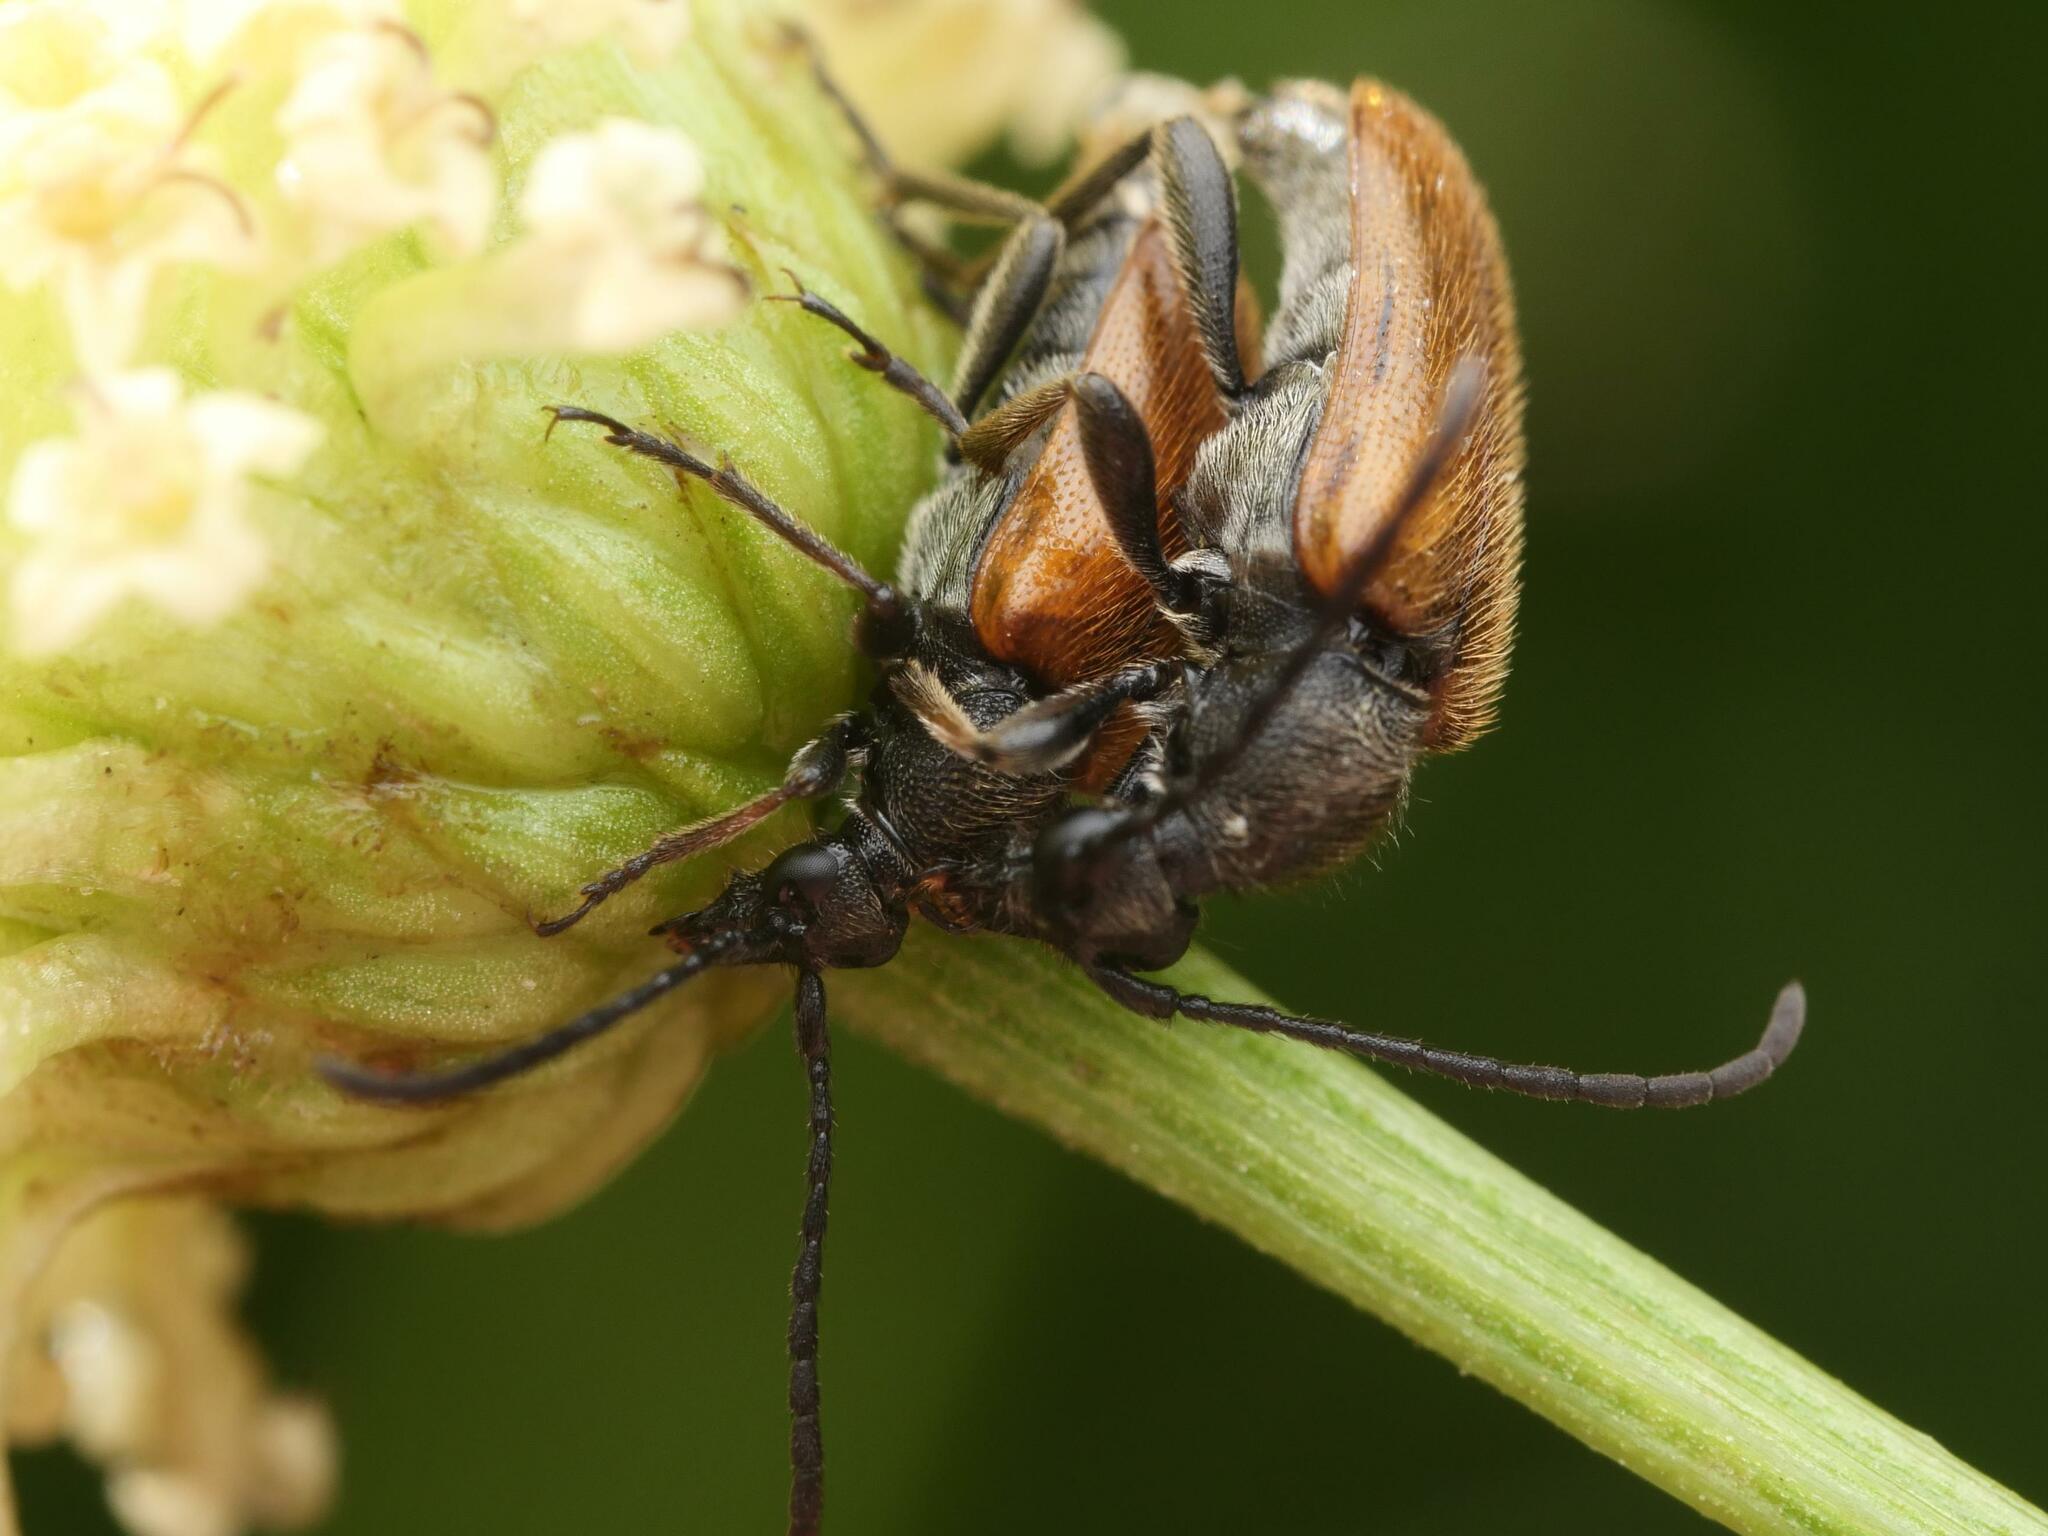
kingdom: Animalia
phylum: Arthropoda
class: Insecta
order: Coleoptera
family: Cerambycidae
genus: Pseudovadonia
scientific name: Pseudovadonia livida
